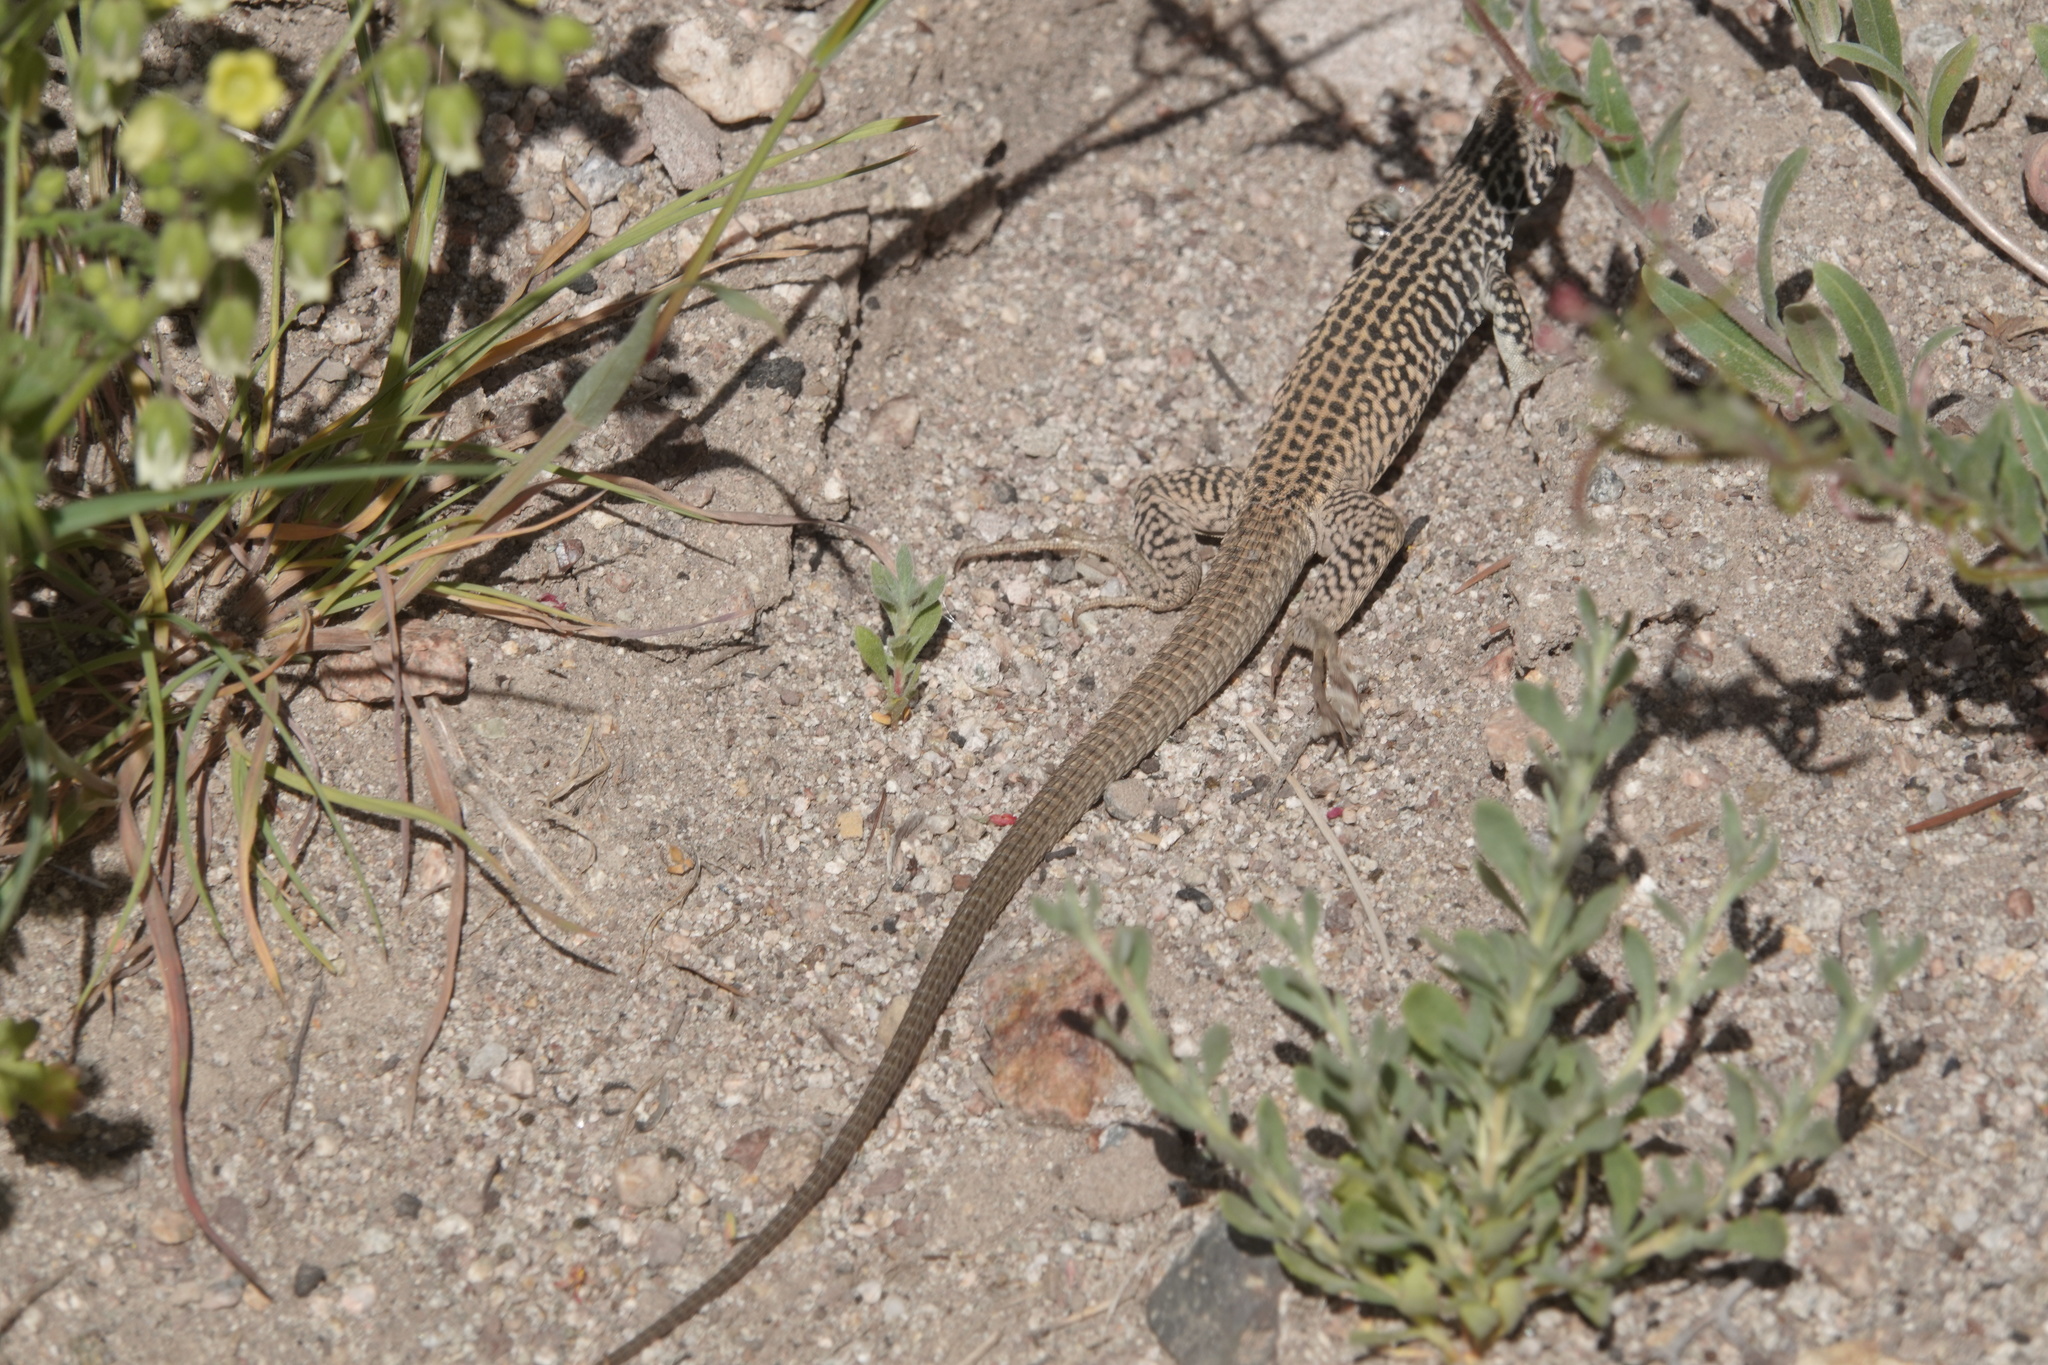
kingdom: Animalia
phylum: Chordata
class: Squamata
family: Teiidae
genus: Aspidoscelis
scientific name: Aspidoscelis tigris
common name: Tiger whiptail
